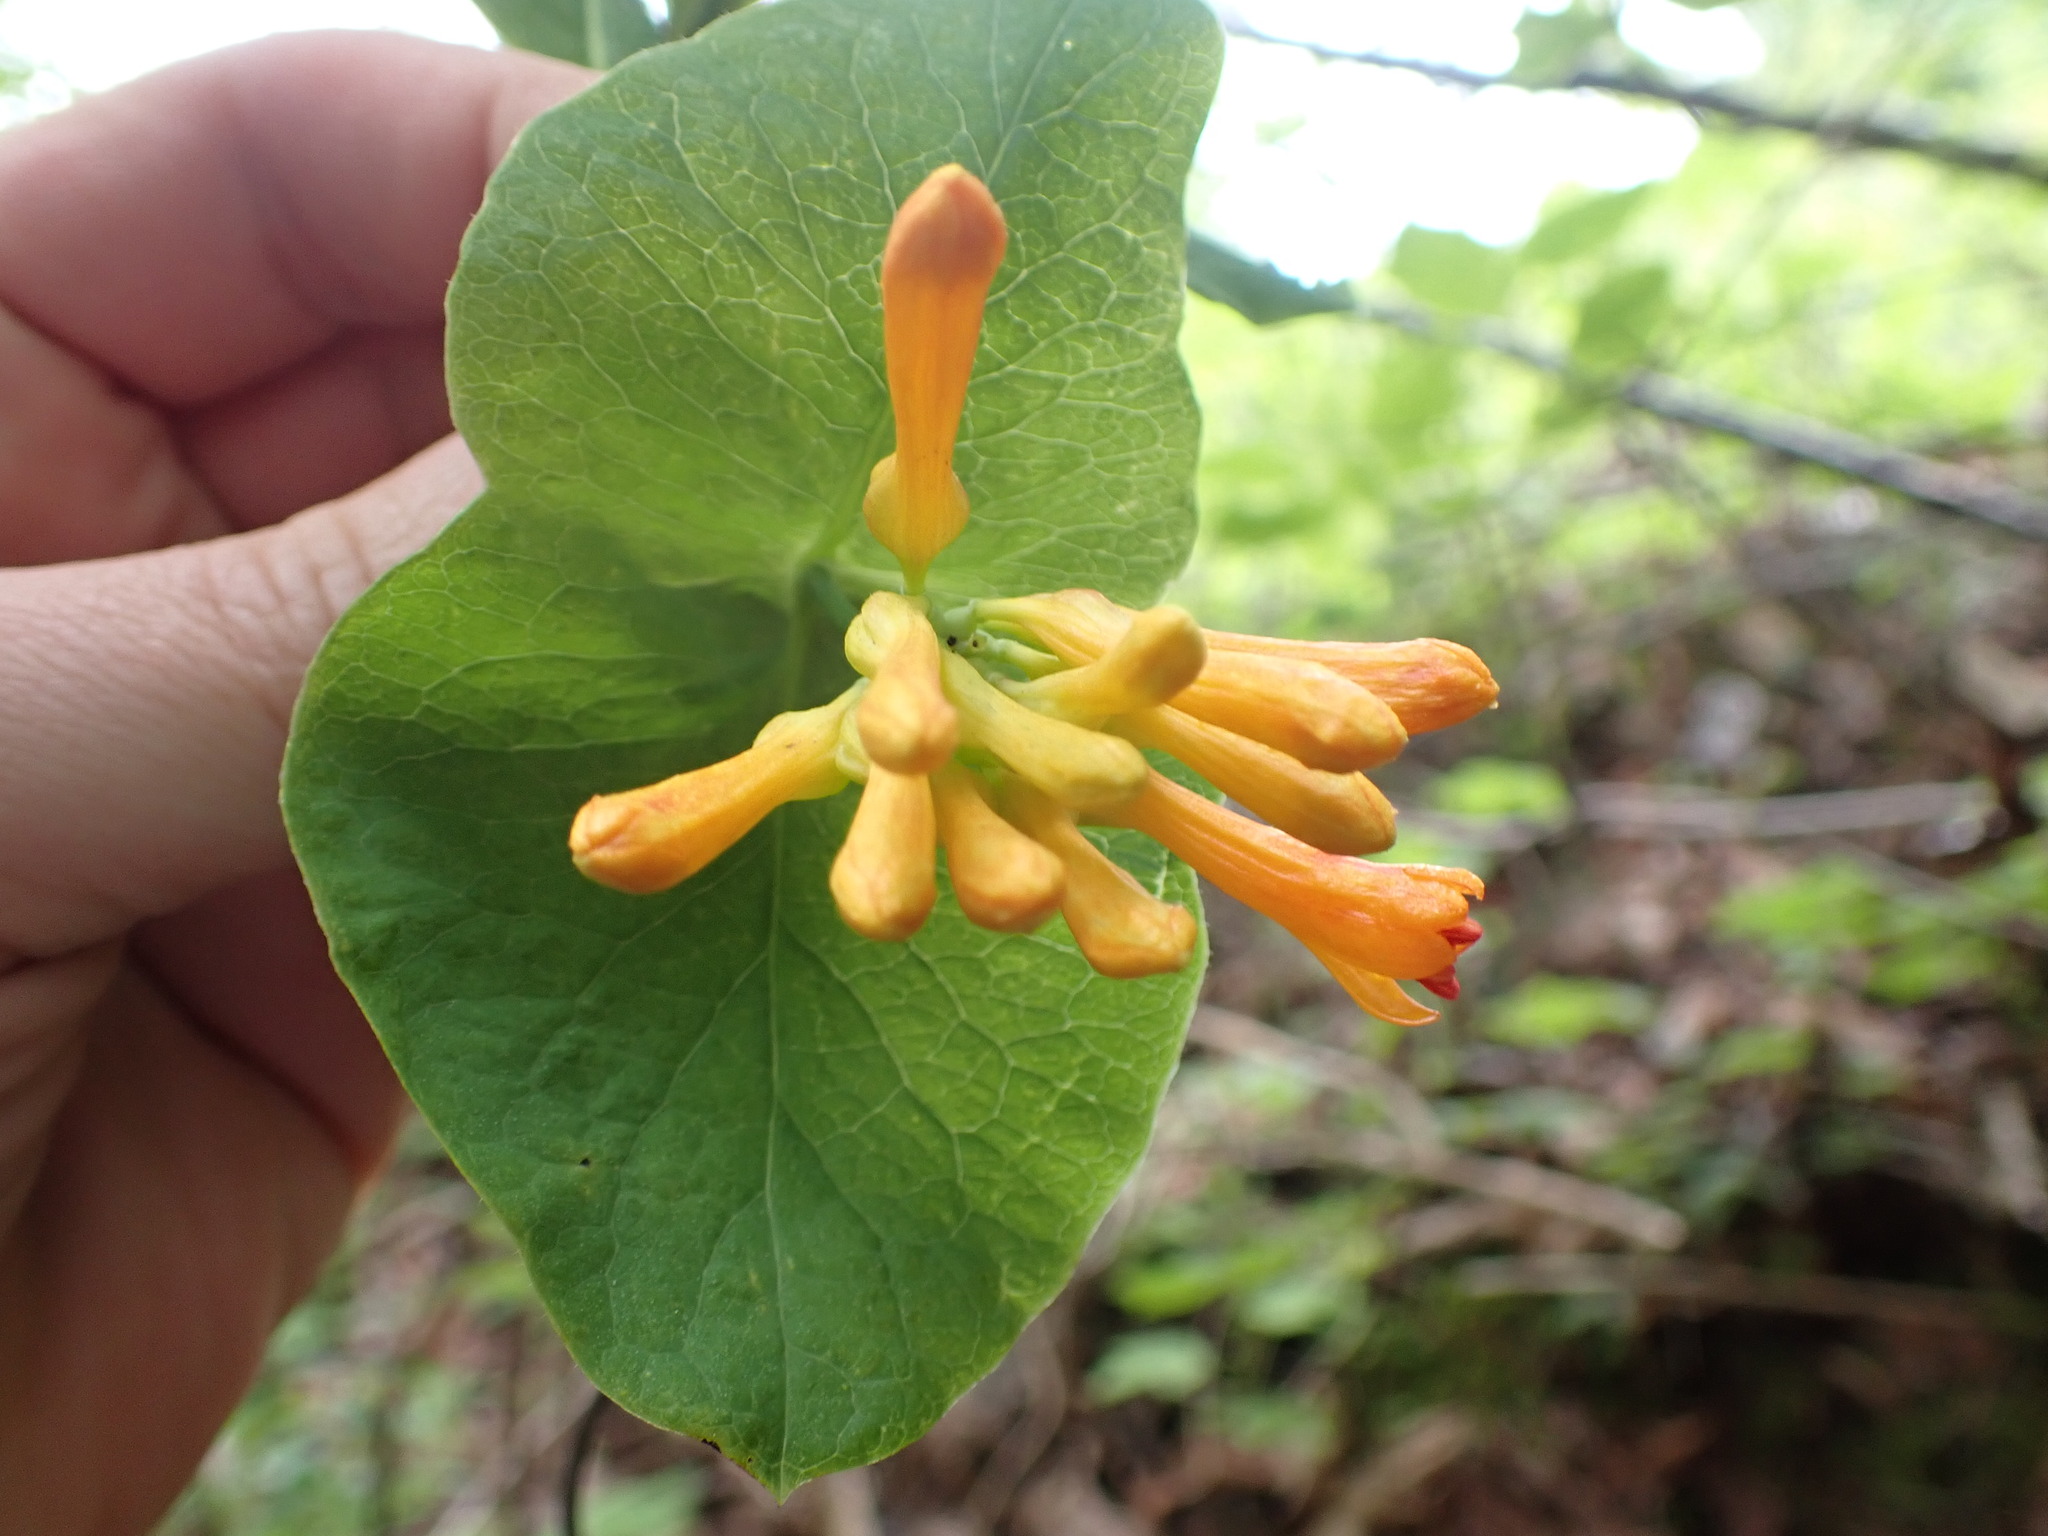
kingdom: Plantae
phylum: Tracheophyta
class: Magnoliopsida
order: Dipsacales
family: Caprifoliaceae
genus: Lonicera
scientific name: Lonicera ciliosa
